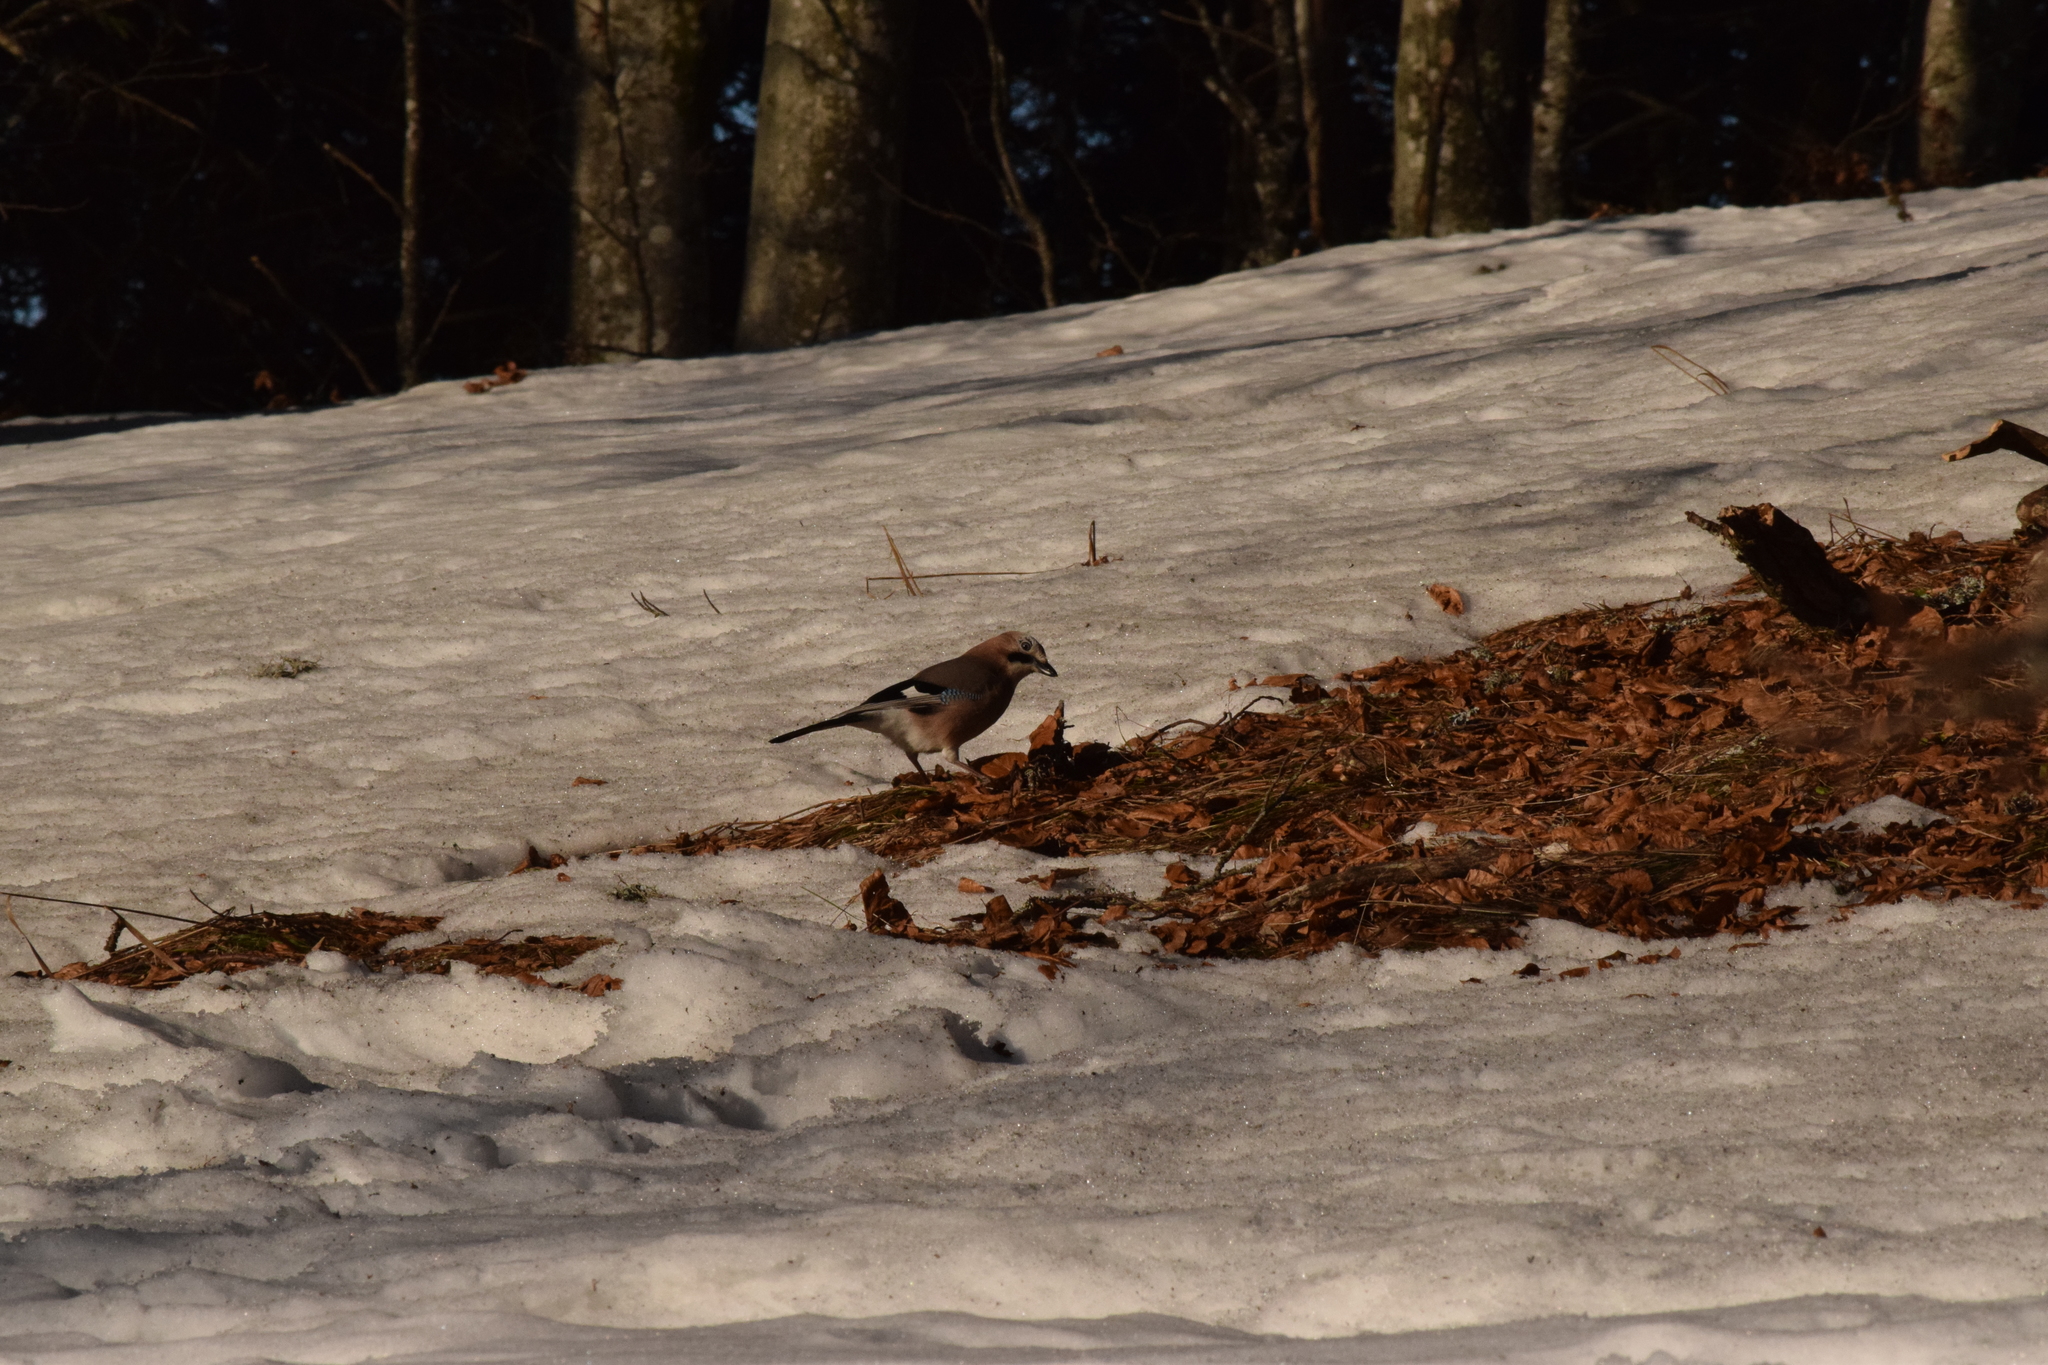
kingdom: Animalia
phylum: Chordata
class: Aves
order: Passeriformes
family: Corvidae
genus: Garrulus
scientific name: Garrulus glandarius
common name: Eurasian jay
